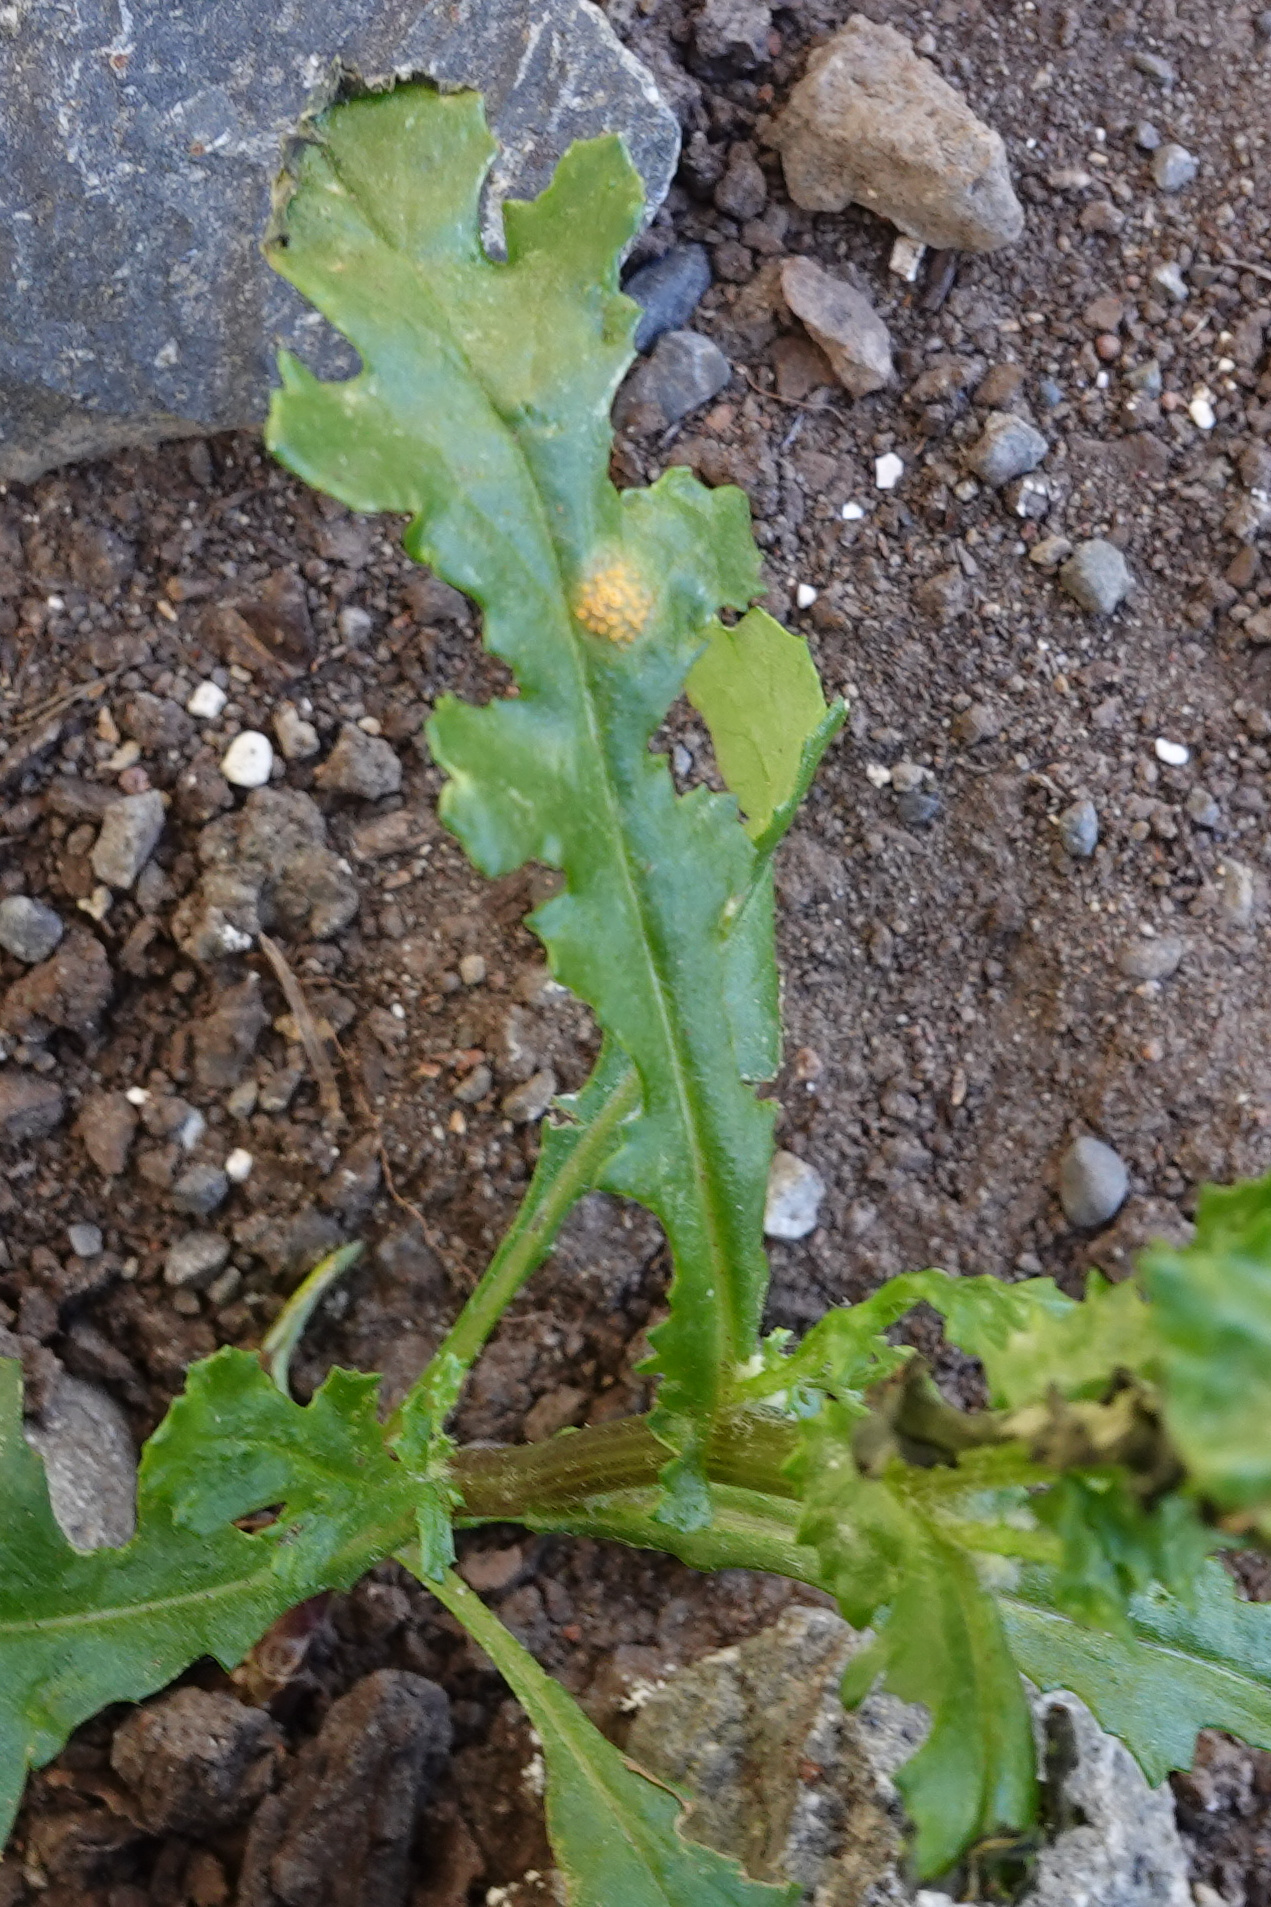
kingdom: Fungi
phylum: Basidiomycota
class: Pucciniomycetes
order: Pucciniales
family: Pucciniaceae
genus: Puccinia
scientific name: Puccinia lagenophorae
